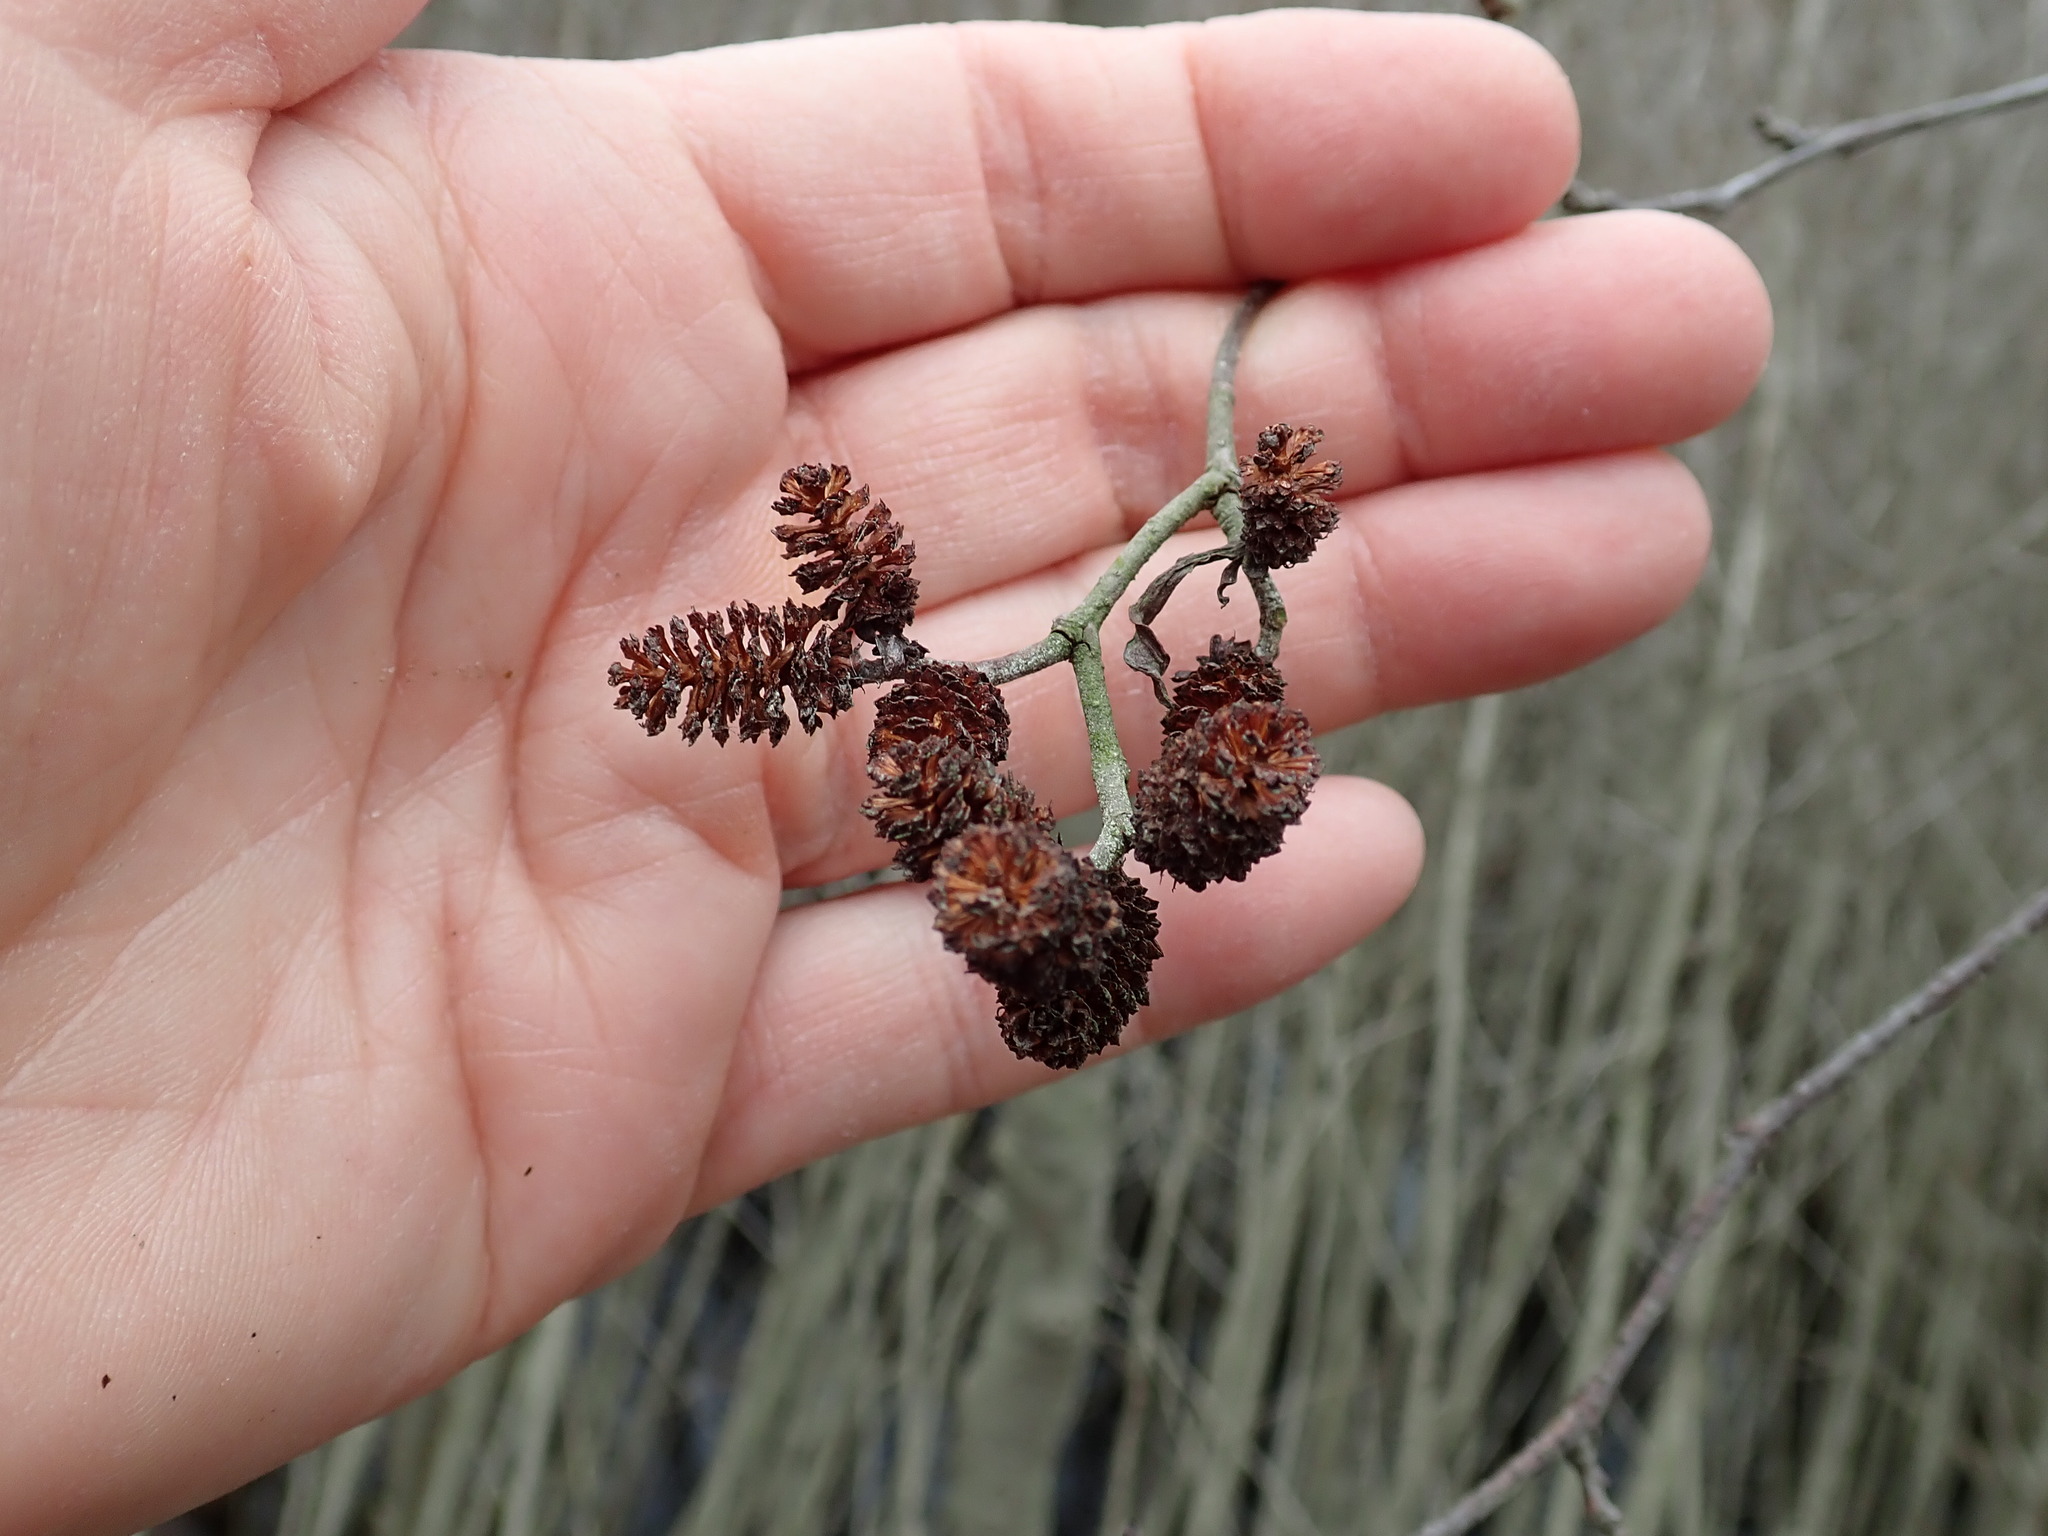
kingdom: Plantae
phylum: Tracheophyta
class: Magnoliopsida
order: Fagales
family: Betulaceae
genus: Alnus
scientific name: Alnus incana
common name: Grey alder
